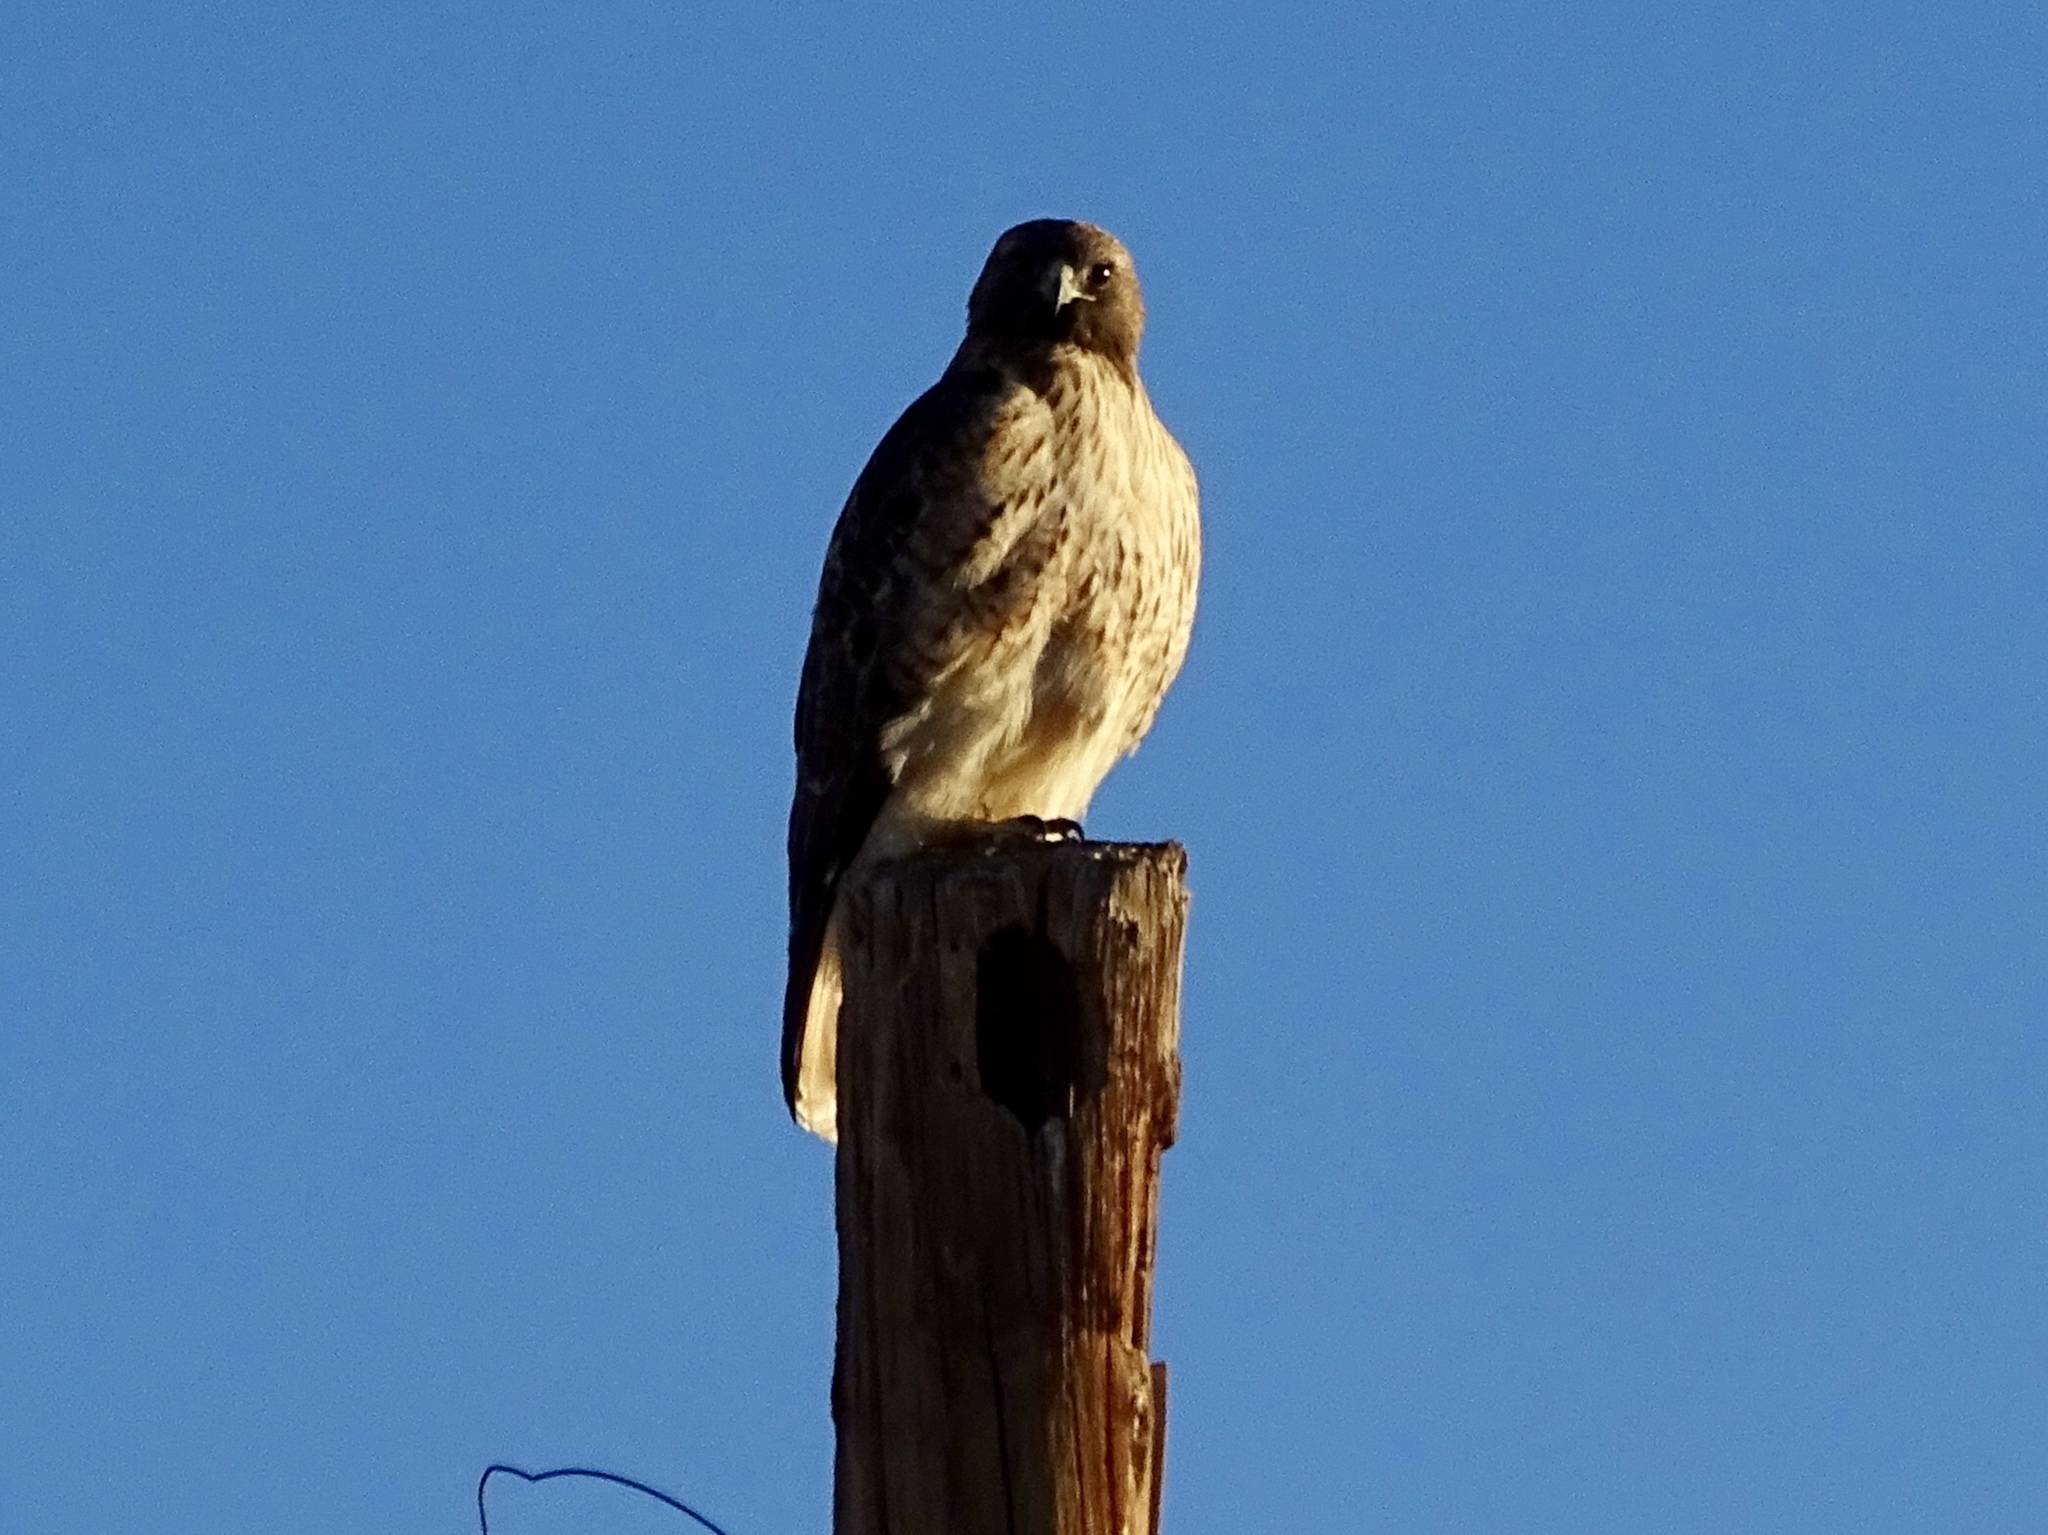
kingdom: Animalia
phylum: Chordata
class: Aves
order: Accipitriformes
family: Accipitridae
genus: Buteo
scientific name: Buteo jamaicensis
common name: Red-tailed hawk
